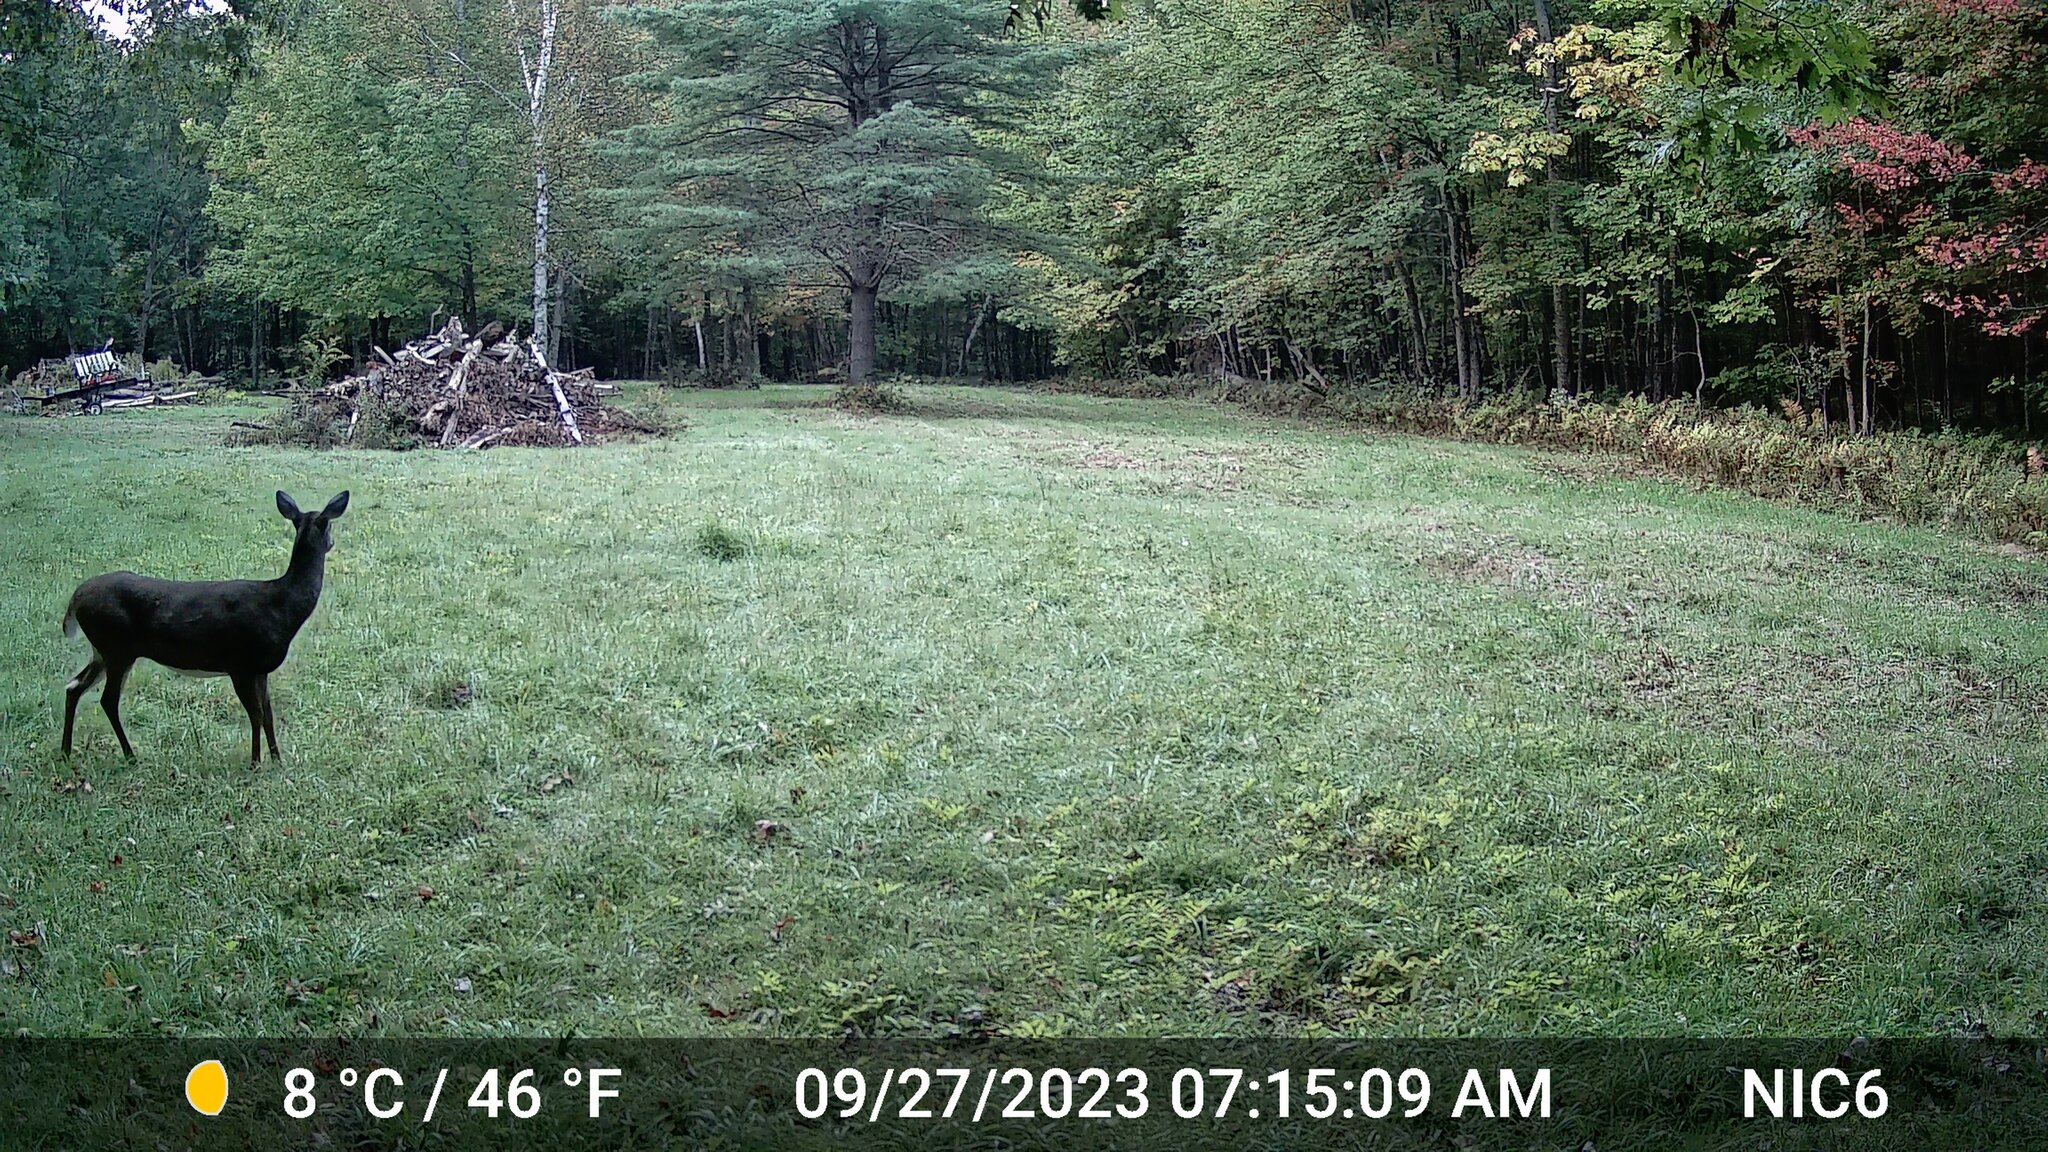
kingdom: Animalia
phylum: Chordata
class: Mammalia
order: Artiodactyla
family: Cervidae
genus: Odocoileus
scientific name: Odocoileus virginianus
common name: White-tailed deer
